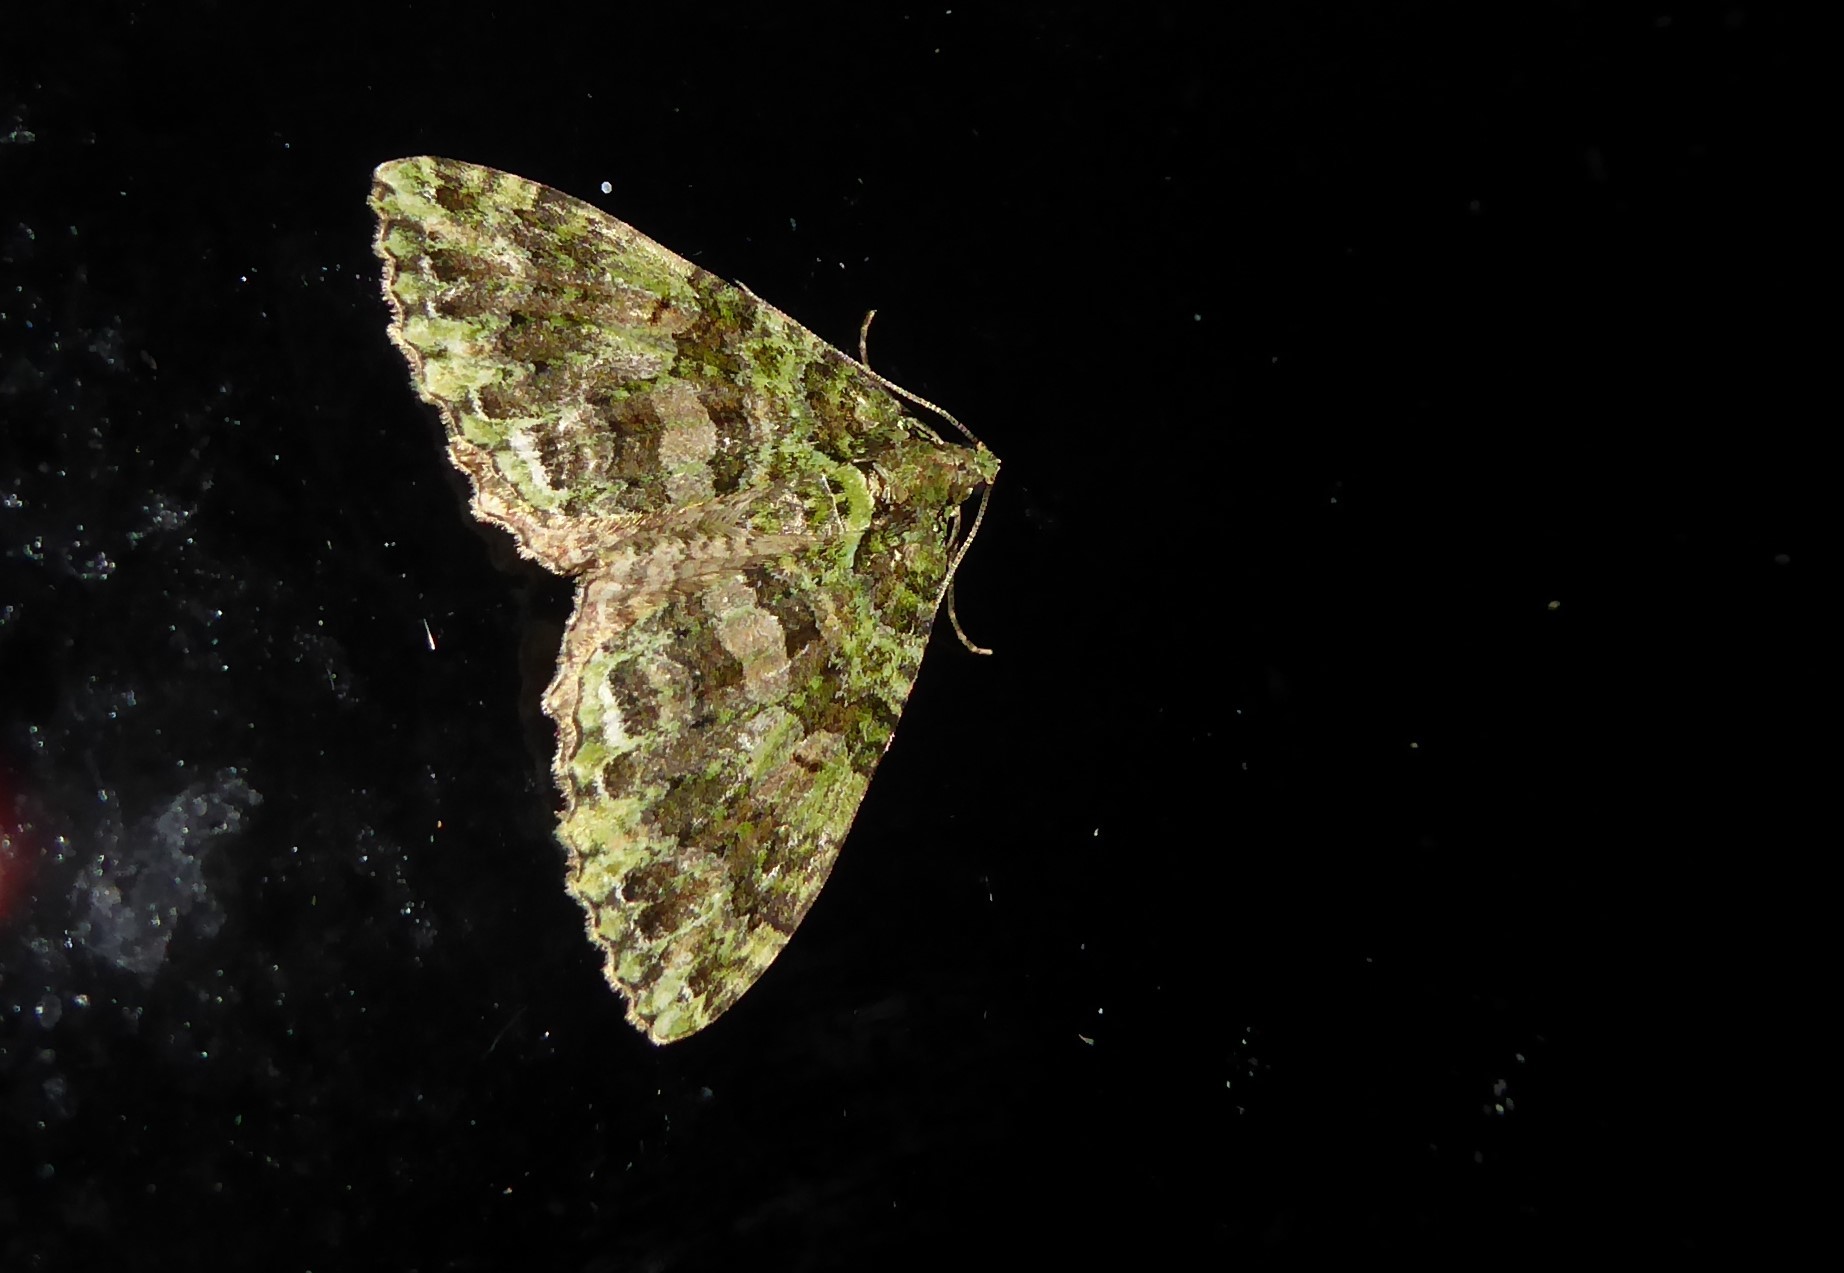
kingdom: Animalia
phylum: Arthropoda
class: Insecta
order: Lepidoptera
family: Geometridae
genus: Austrocidaria
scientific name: Austrocidaria similata
